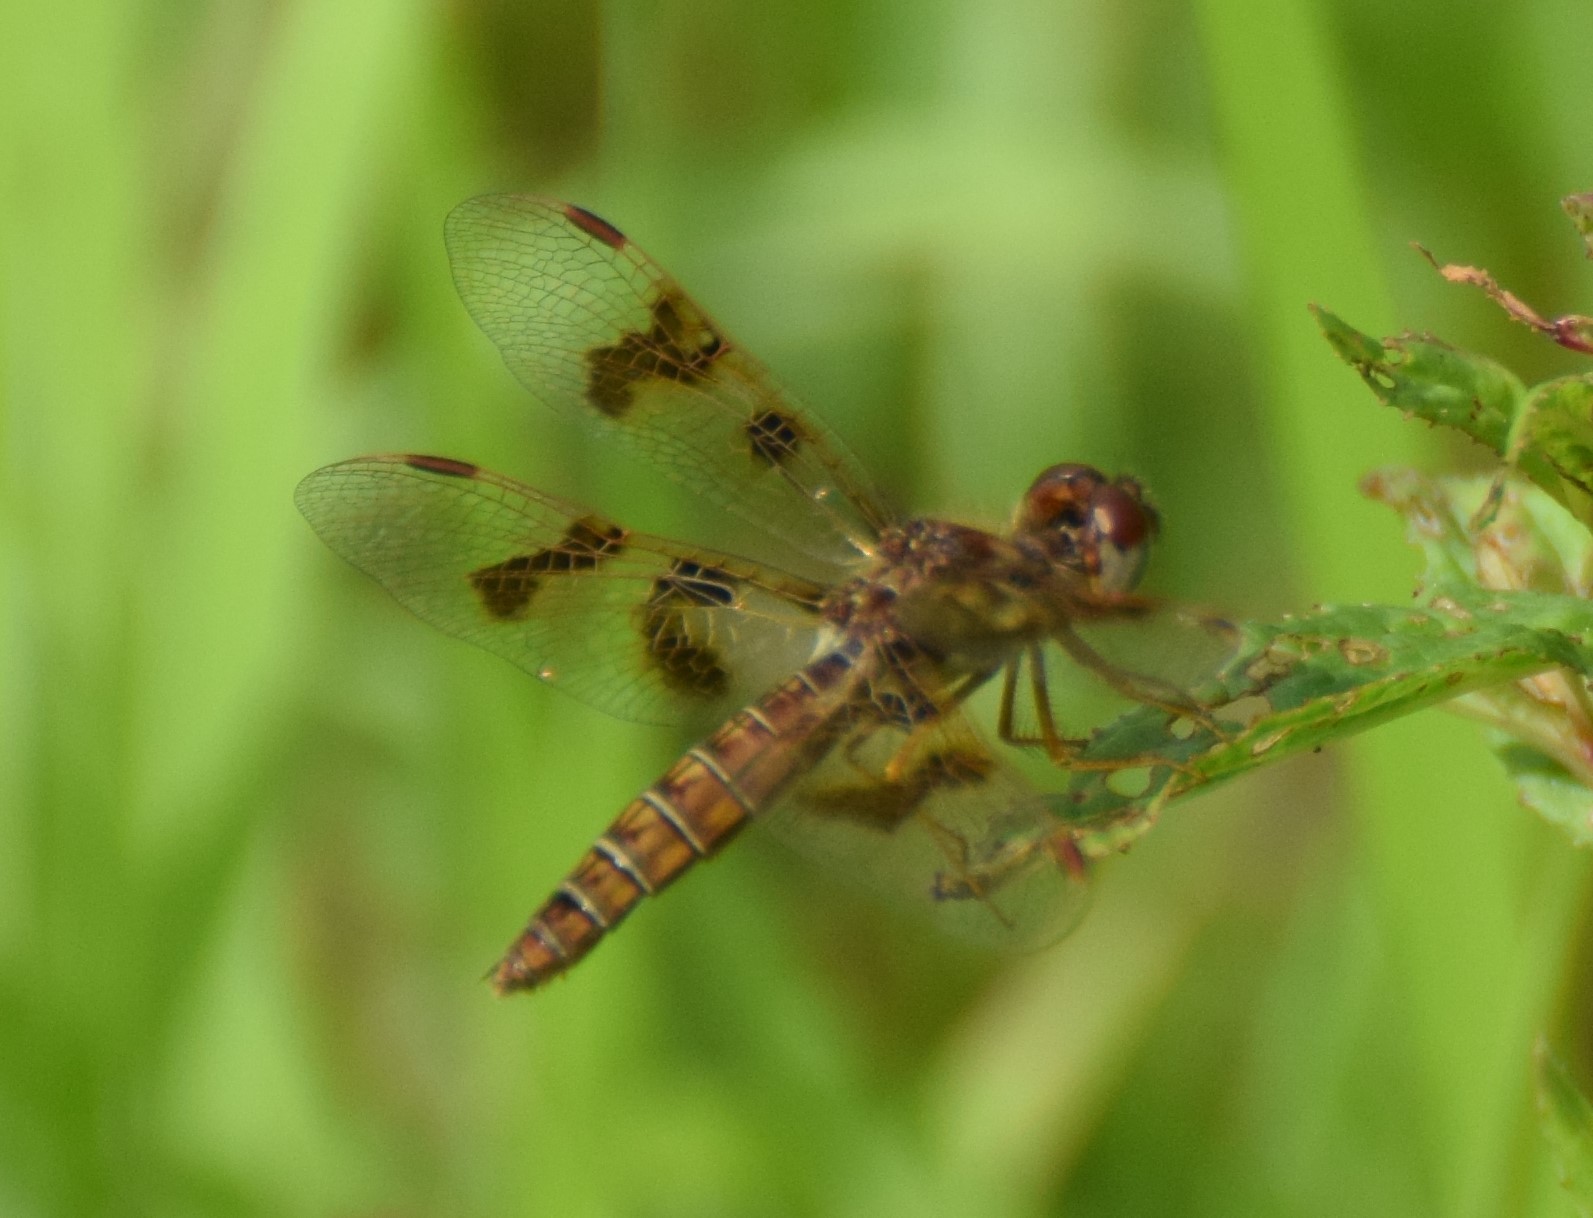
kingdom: Animalia
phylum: Arthropoda
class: Insecta
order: Odonata
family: Libellulidae
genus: Perithemis
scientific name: Perithemis tenera
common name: Eastern amberwing
